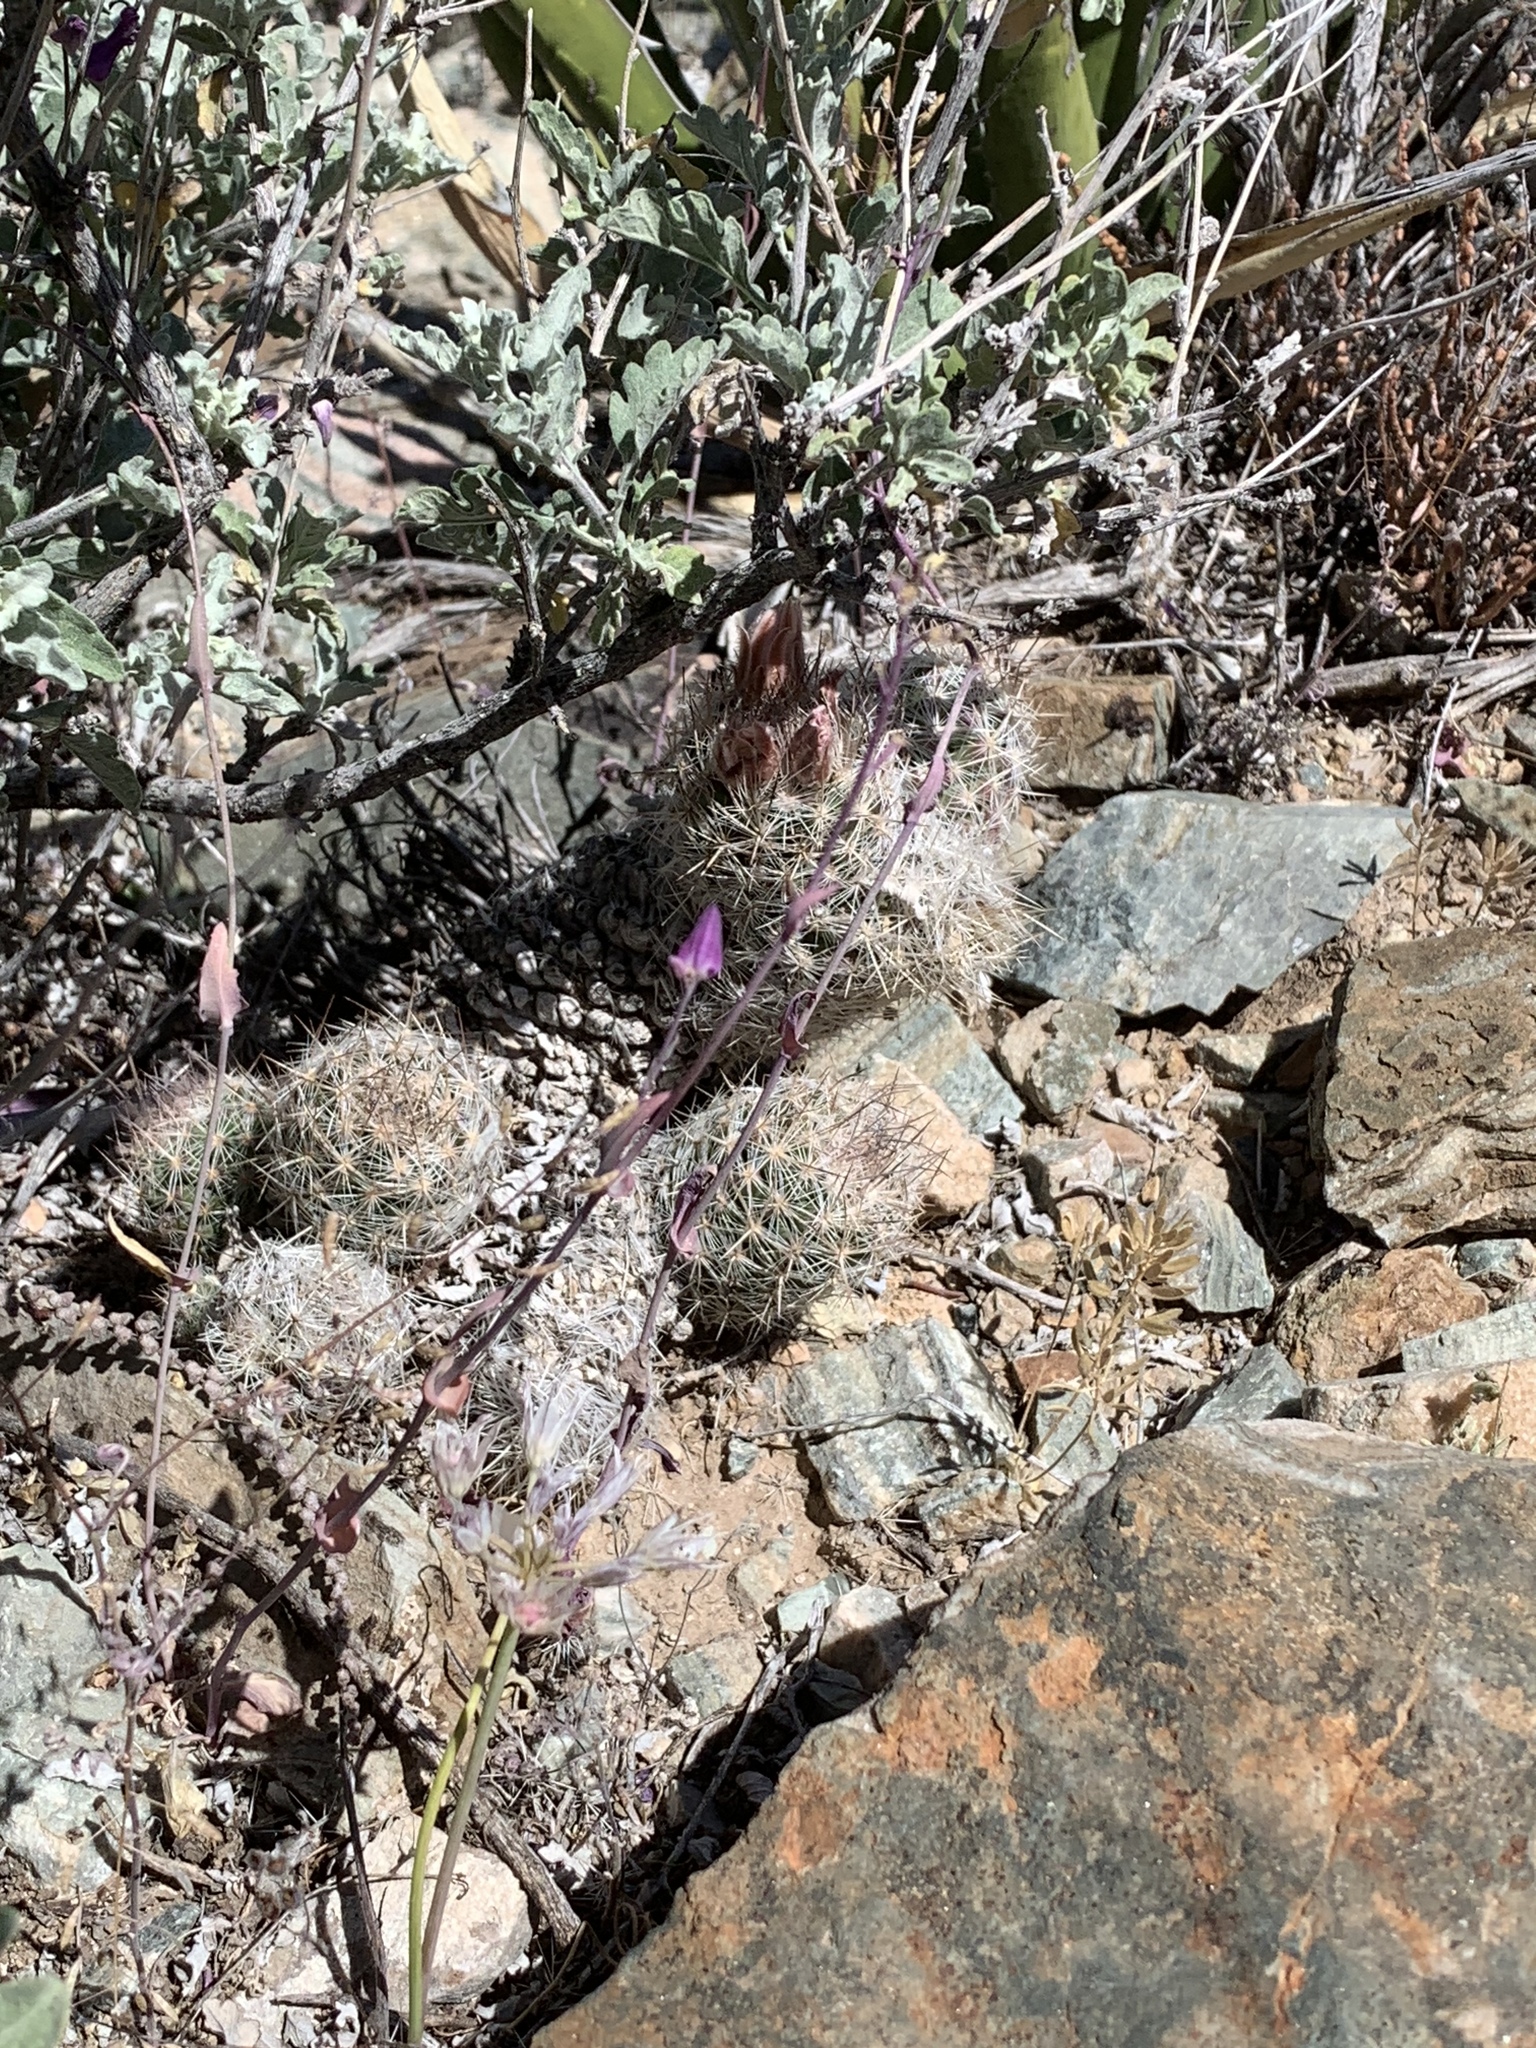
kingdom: Plantae
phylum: Tracheophyta
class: Magnoliopsida
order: Caryophyllales
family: Cactaceae
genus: Pelecyphora
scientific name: Pelecyphora tuberculosa
